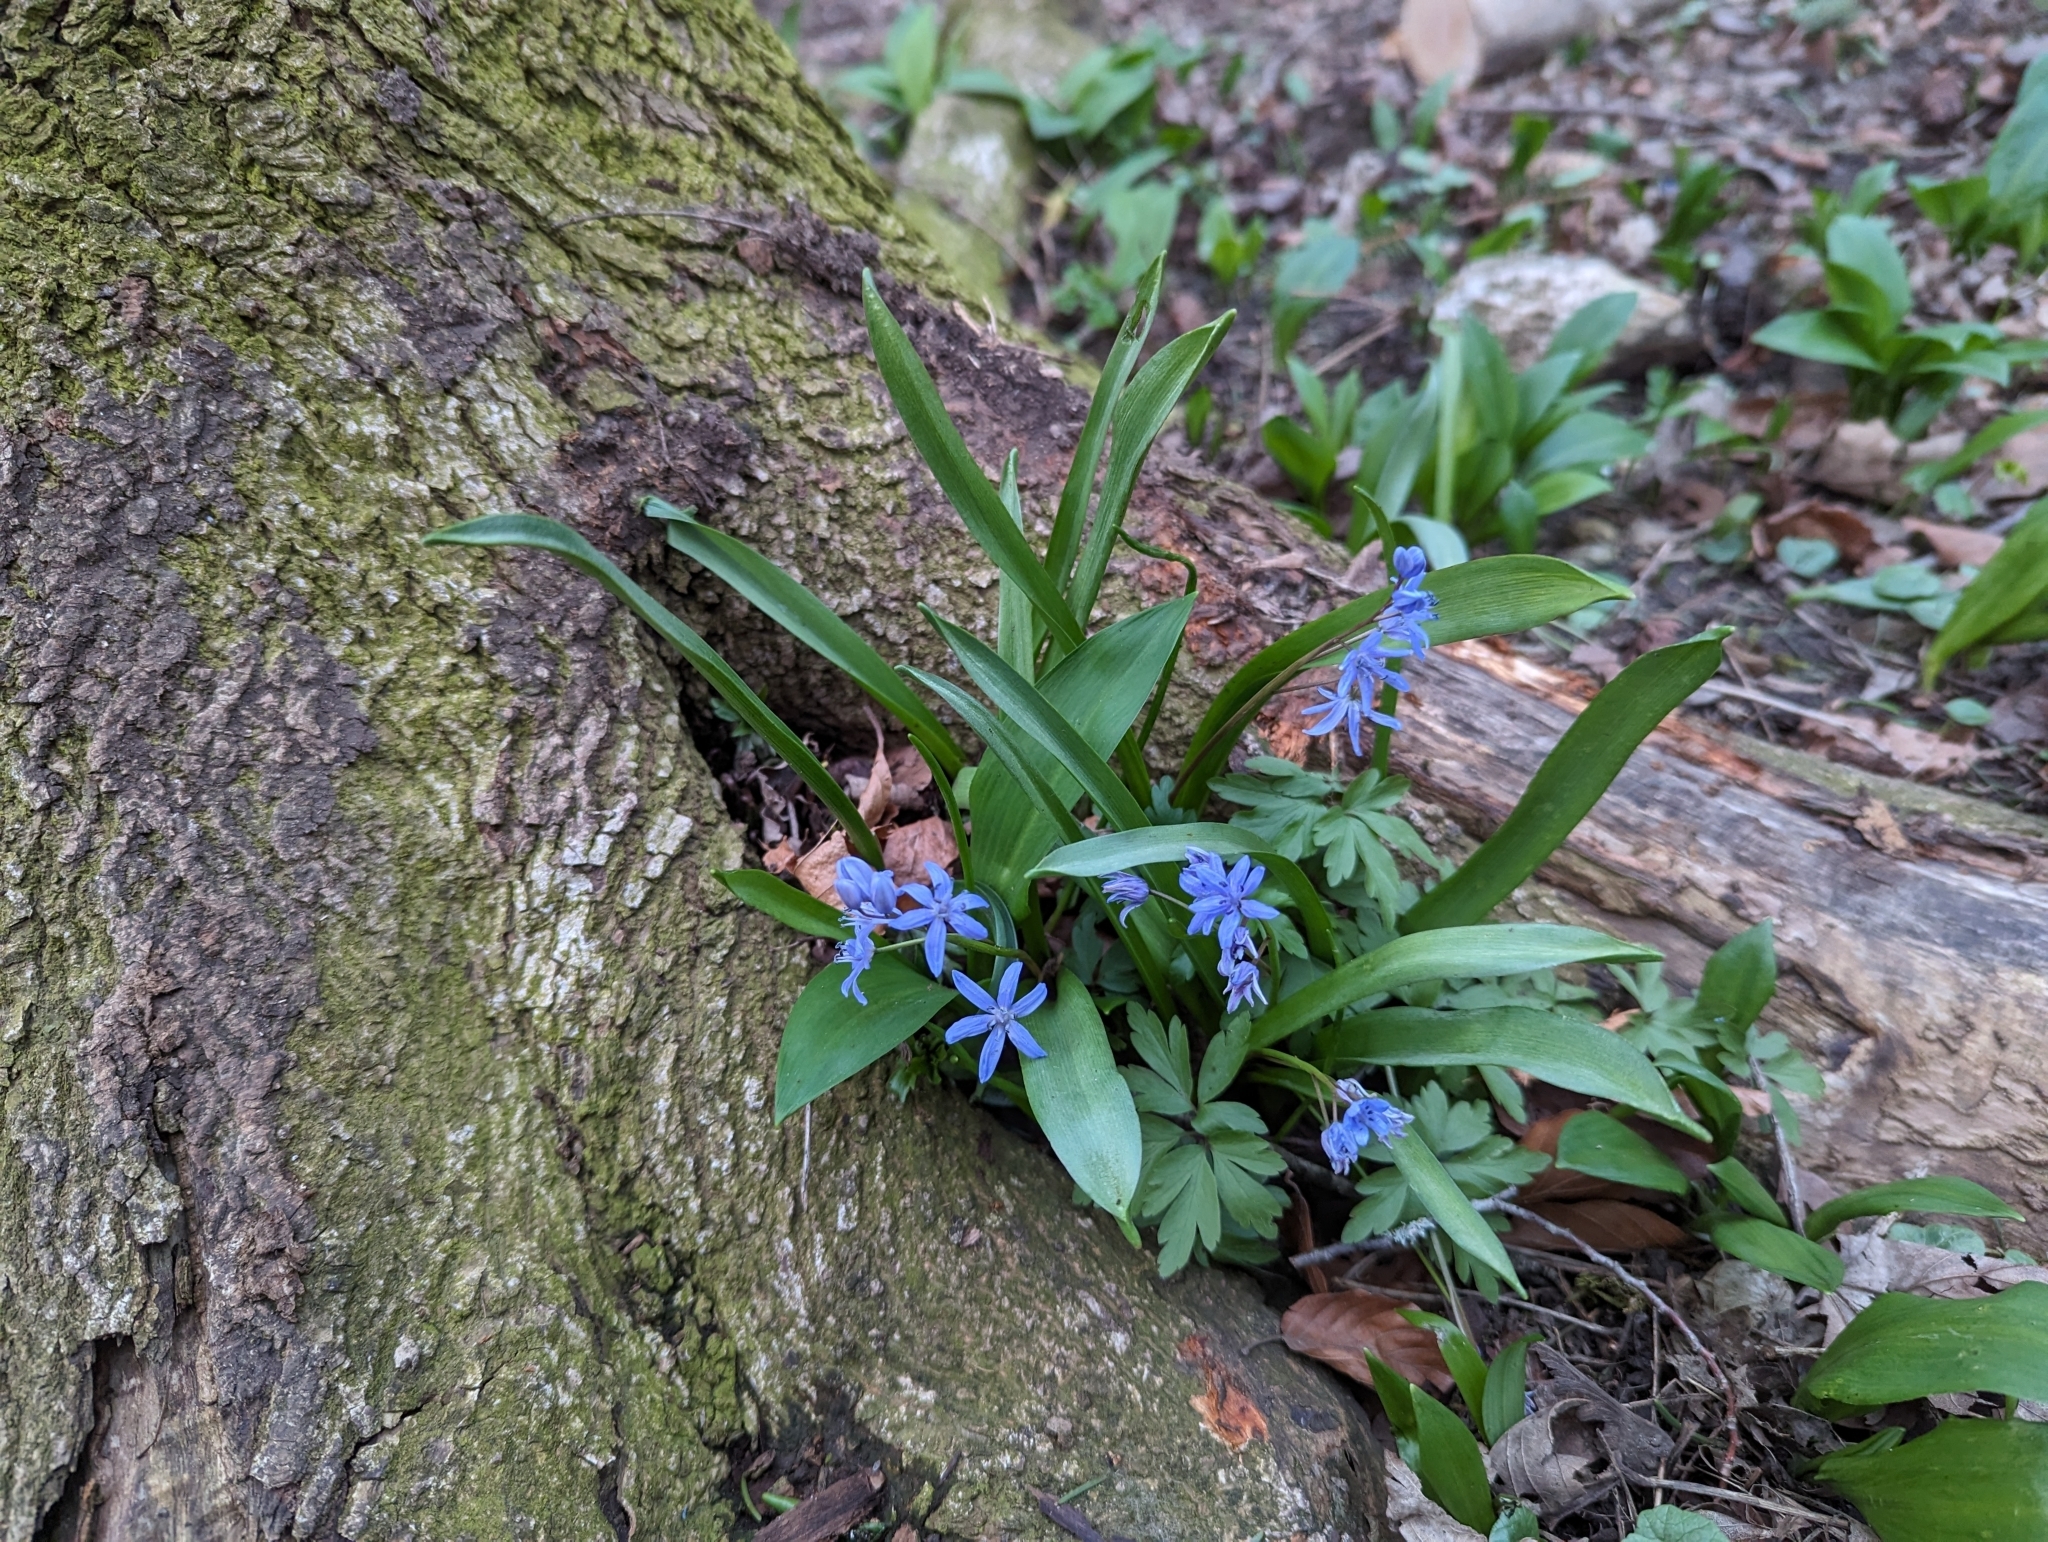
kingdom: Plantae
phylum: Tracheophyta
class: Liliopsida
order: Asparagales
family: Asparagaceae
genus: Scilla
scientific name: Scilla bifolia
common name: Alpine squill
